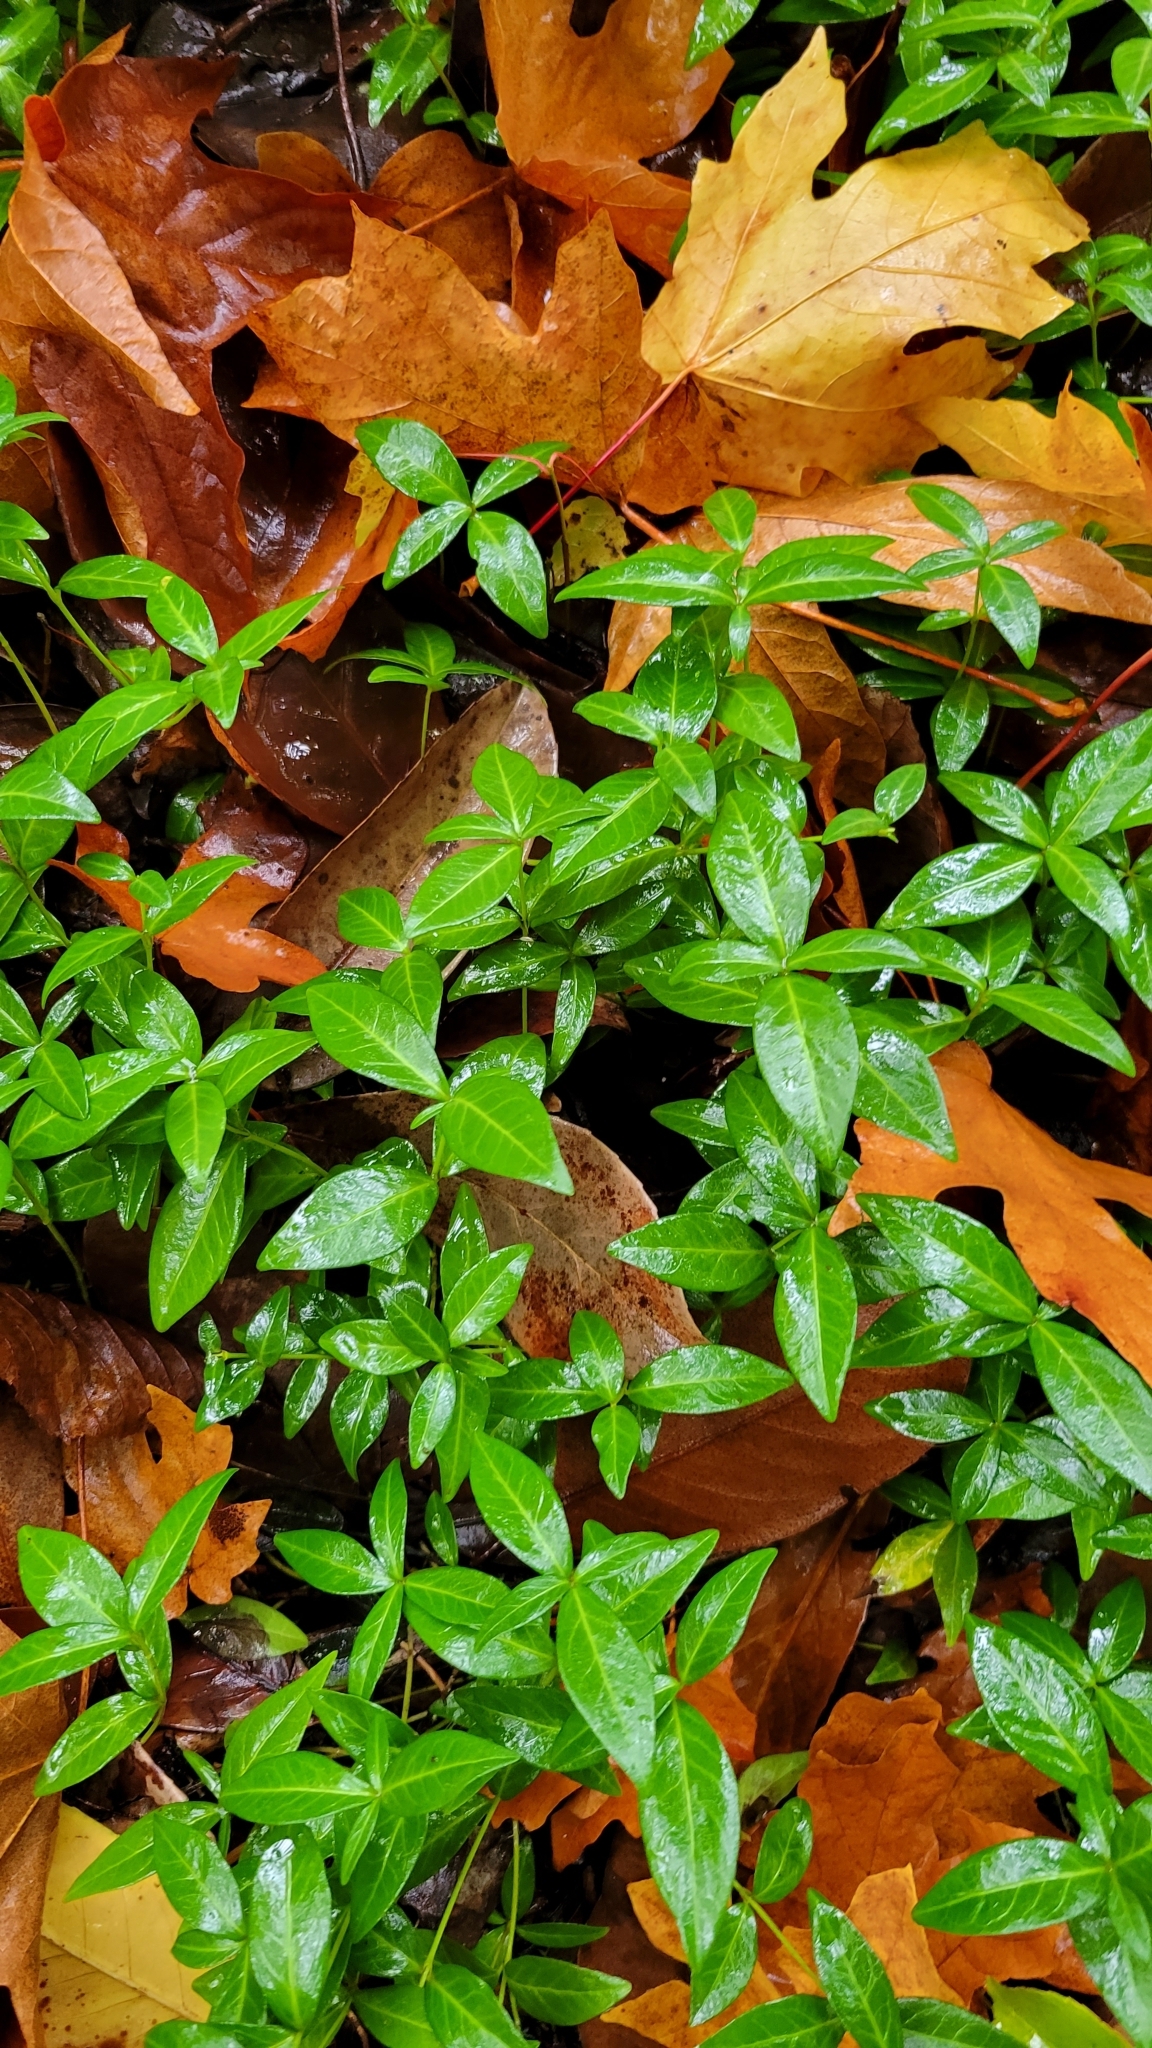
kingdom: Plantae
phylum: Tracheophyta
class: Magnoliopsida
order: Gentianales
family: Apocynaceae
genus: Vinca
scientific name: Vinca minor
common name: Lesser periwinkle
